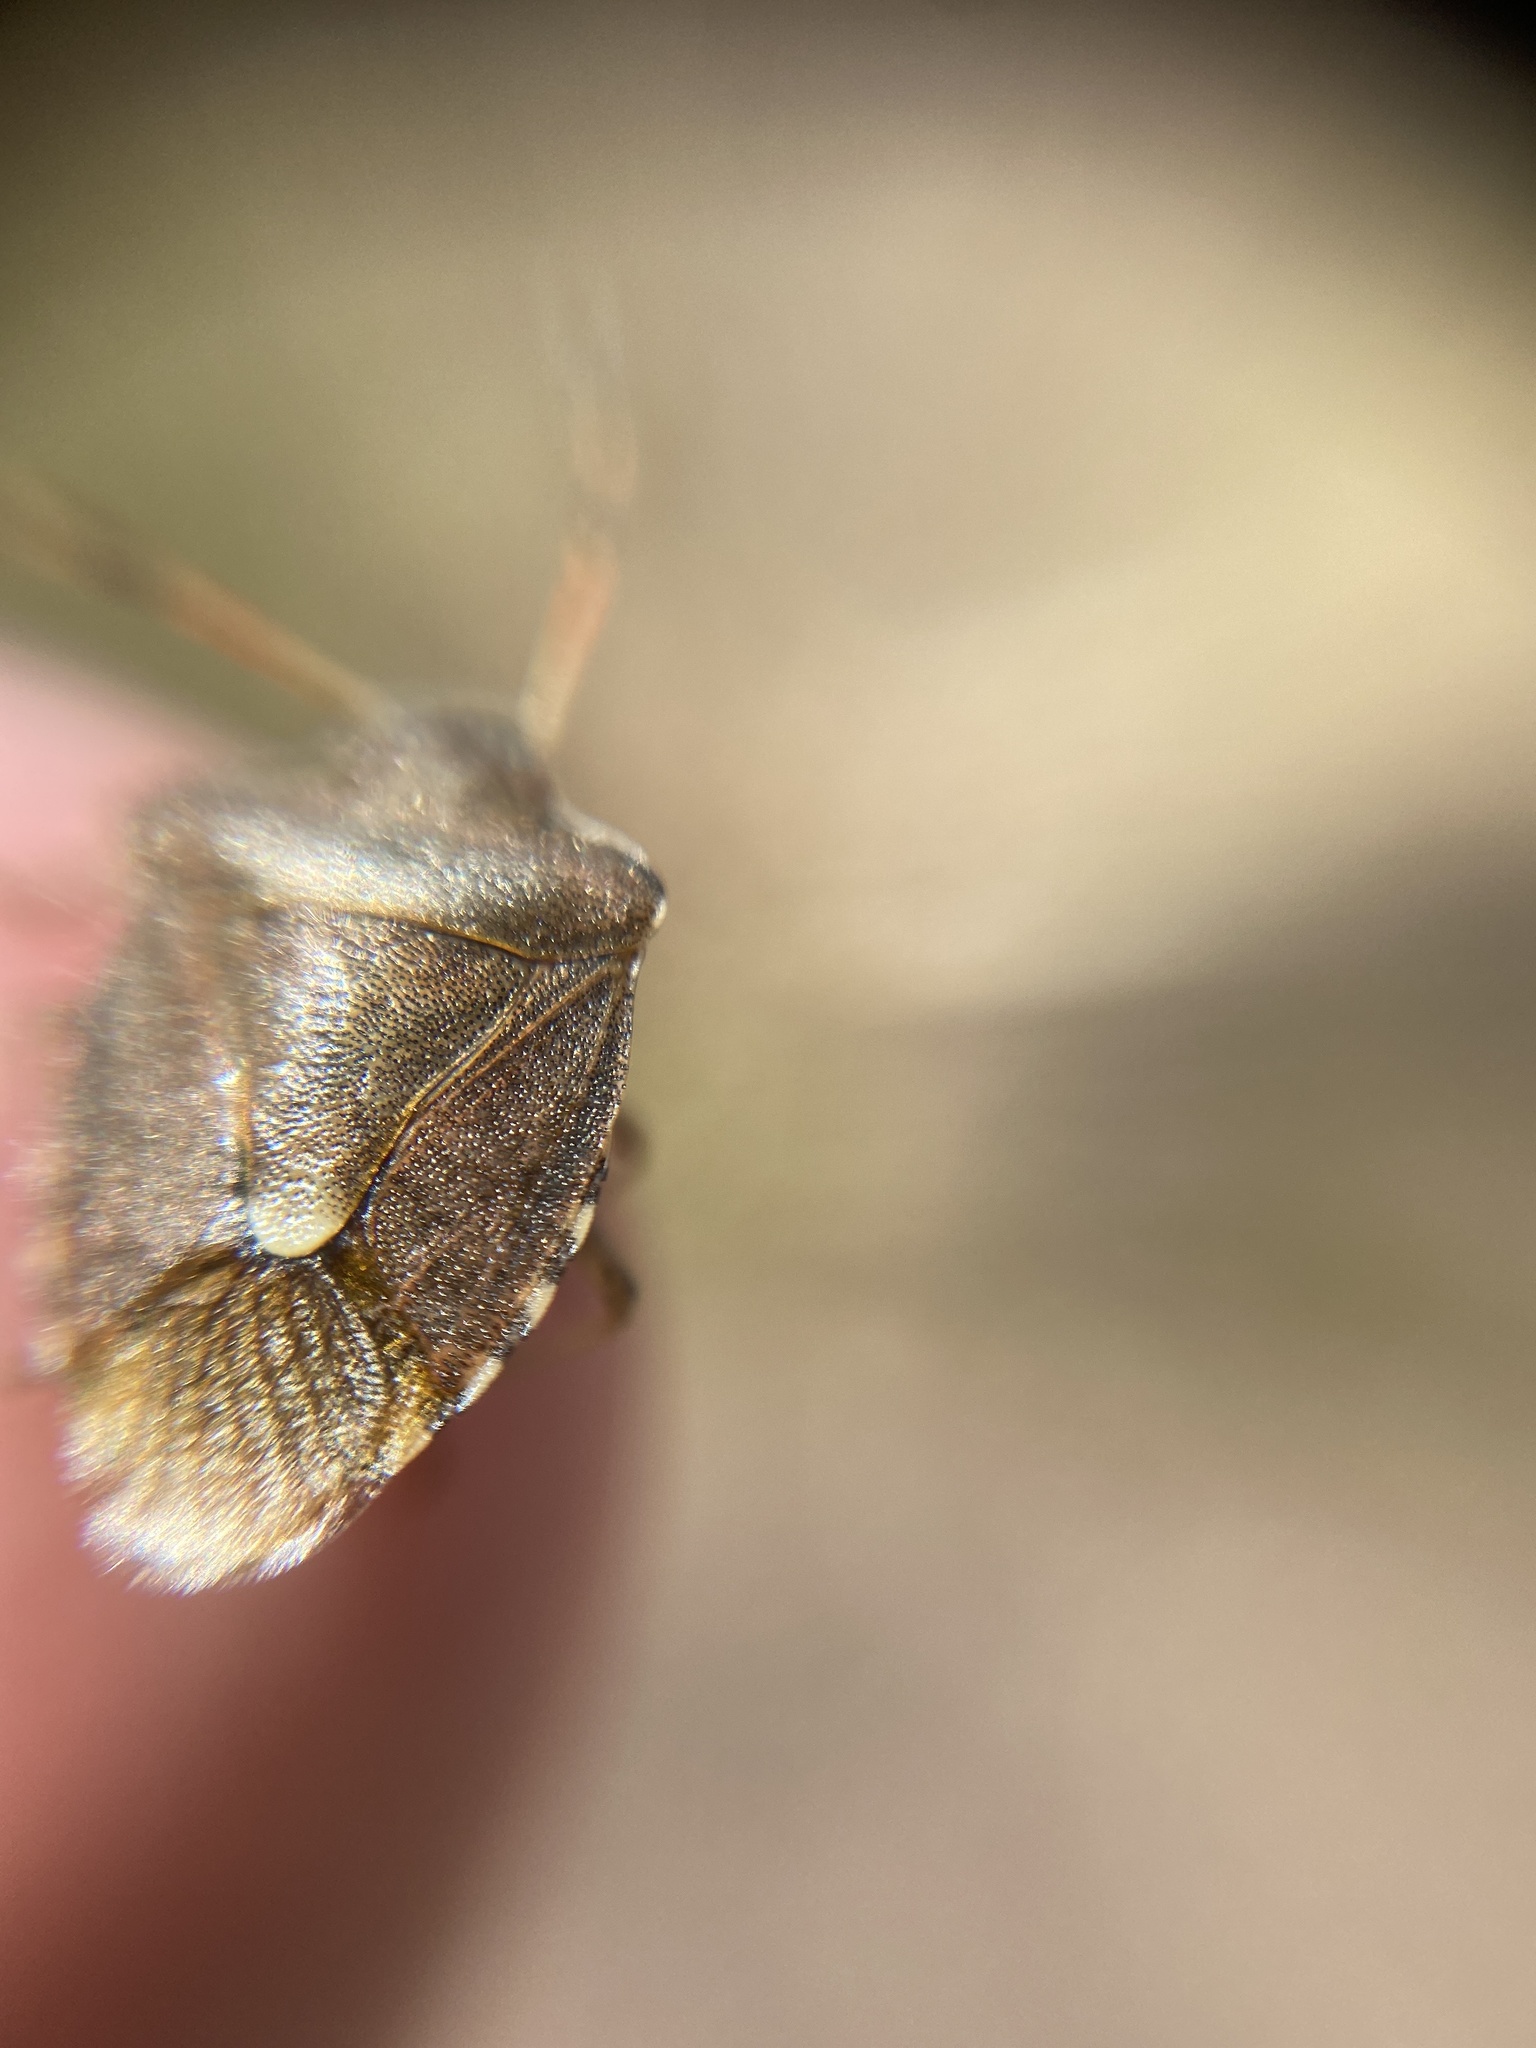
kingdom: Animalia
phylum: Arthropoda
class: Insecta
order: Hemiptera
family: Pentatomidae
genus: Holcostethus
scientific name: Holcostethus strictus
